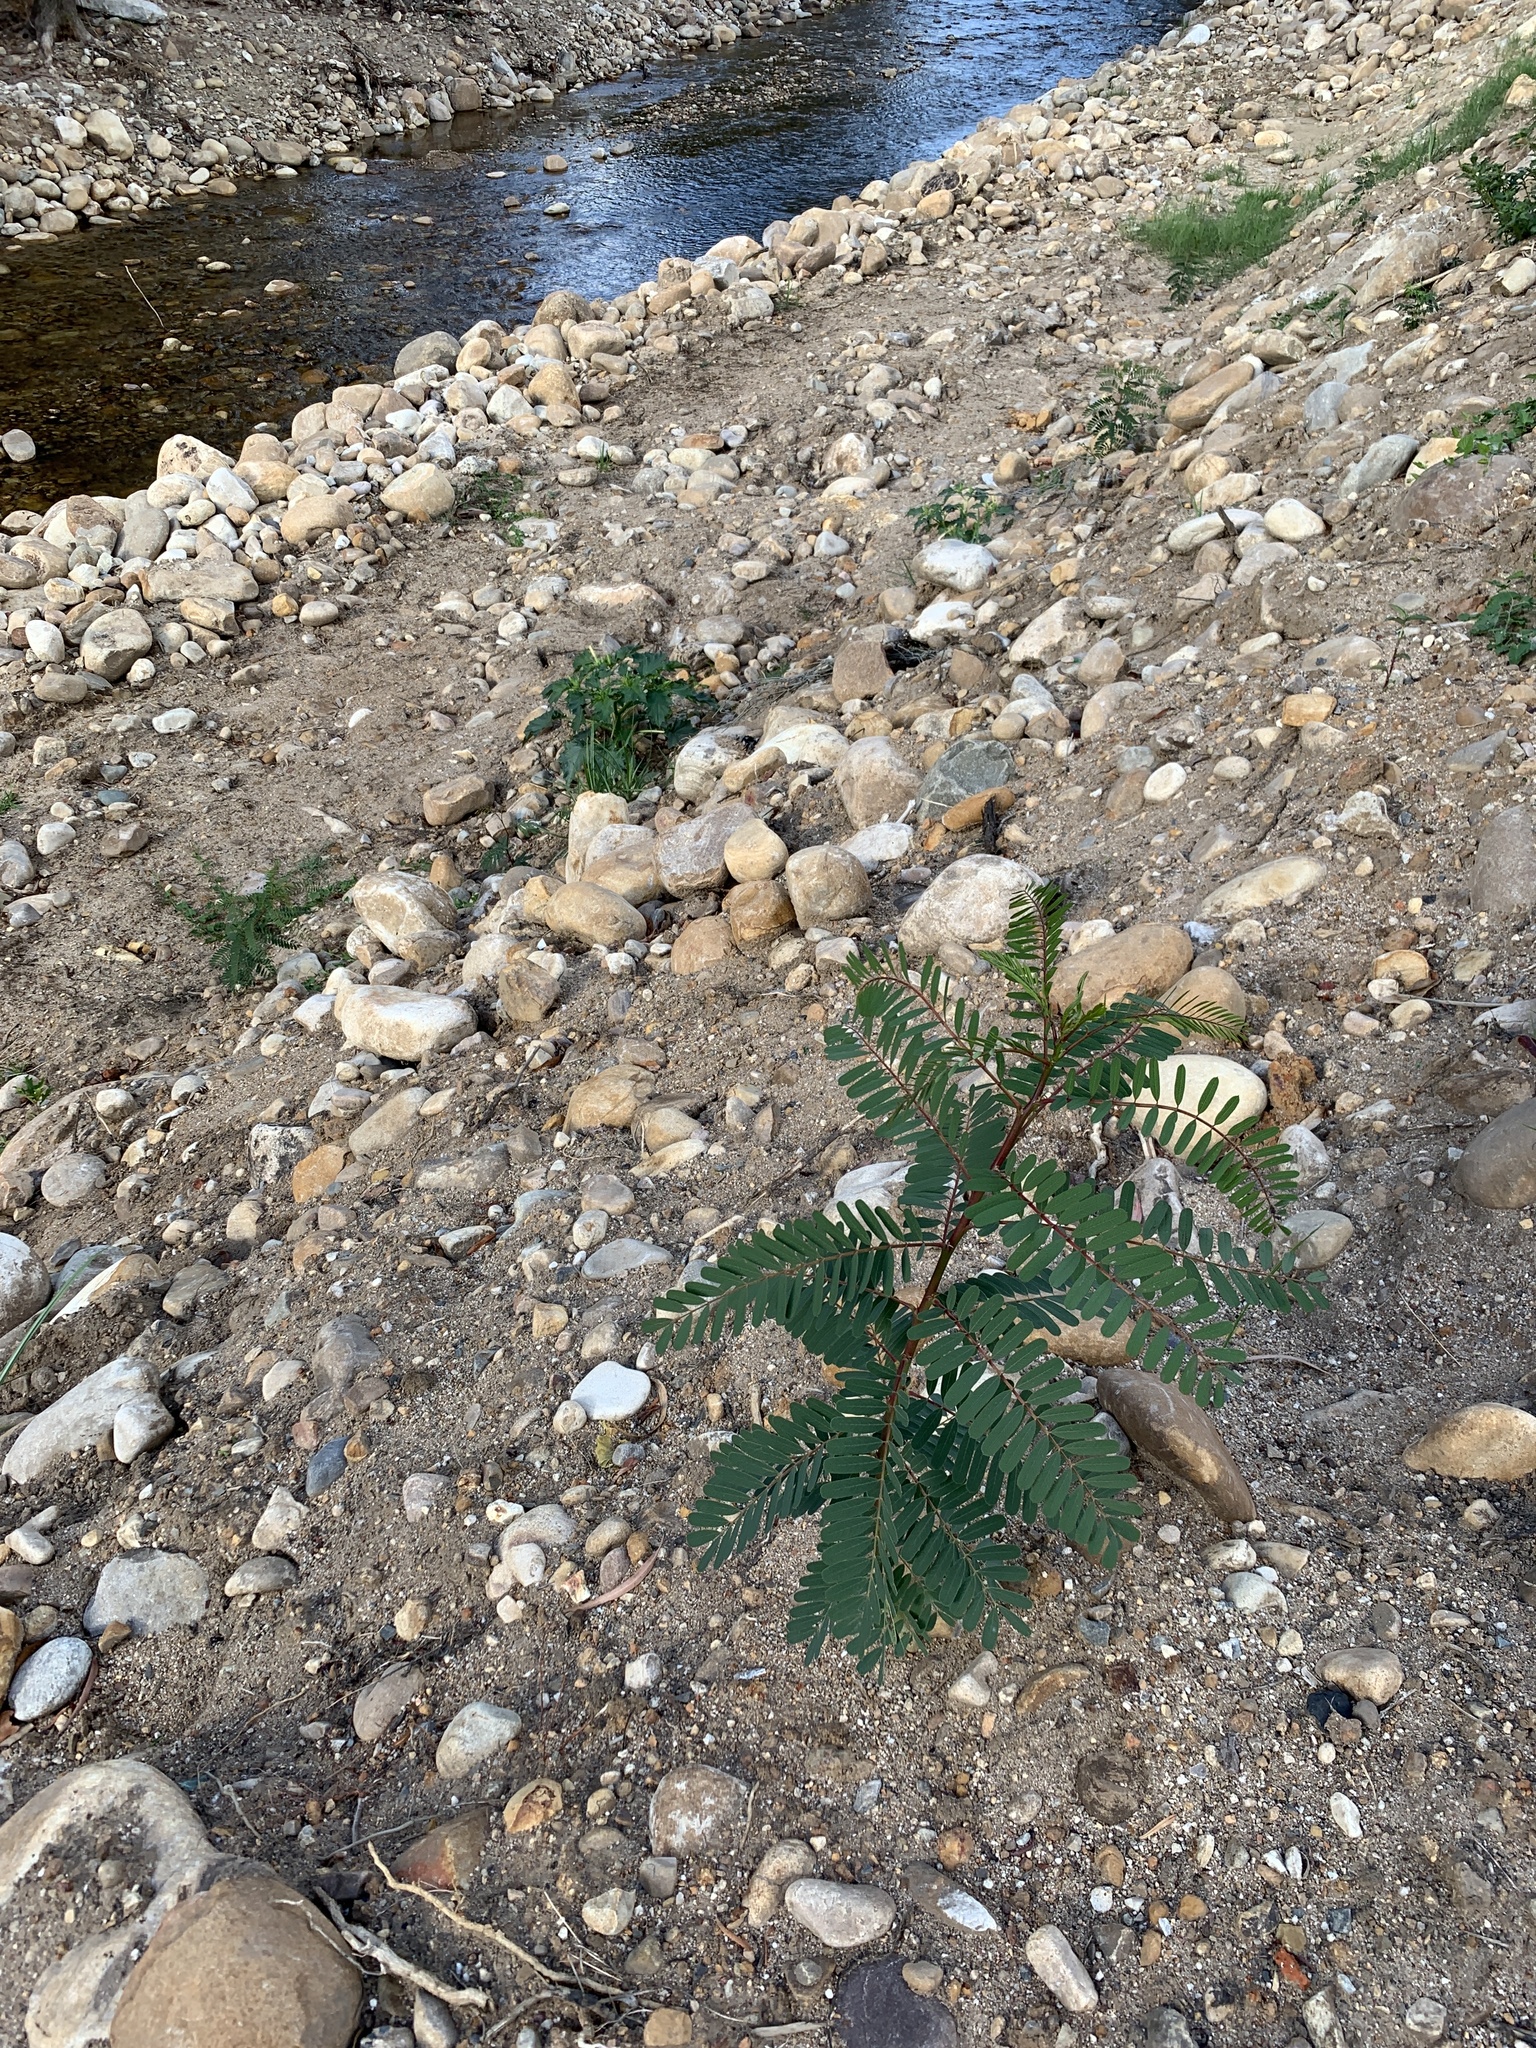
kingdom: Plantae
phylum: Tracheophyta
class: Magnoliopsida
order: Fabales
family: Fabaceae
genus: Sesbania
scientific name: Sesbania punicea
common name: Rattlebox
